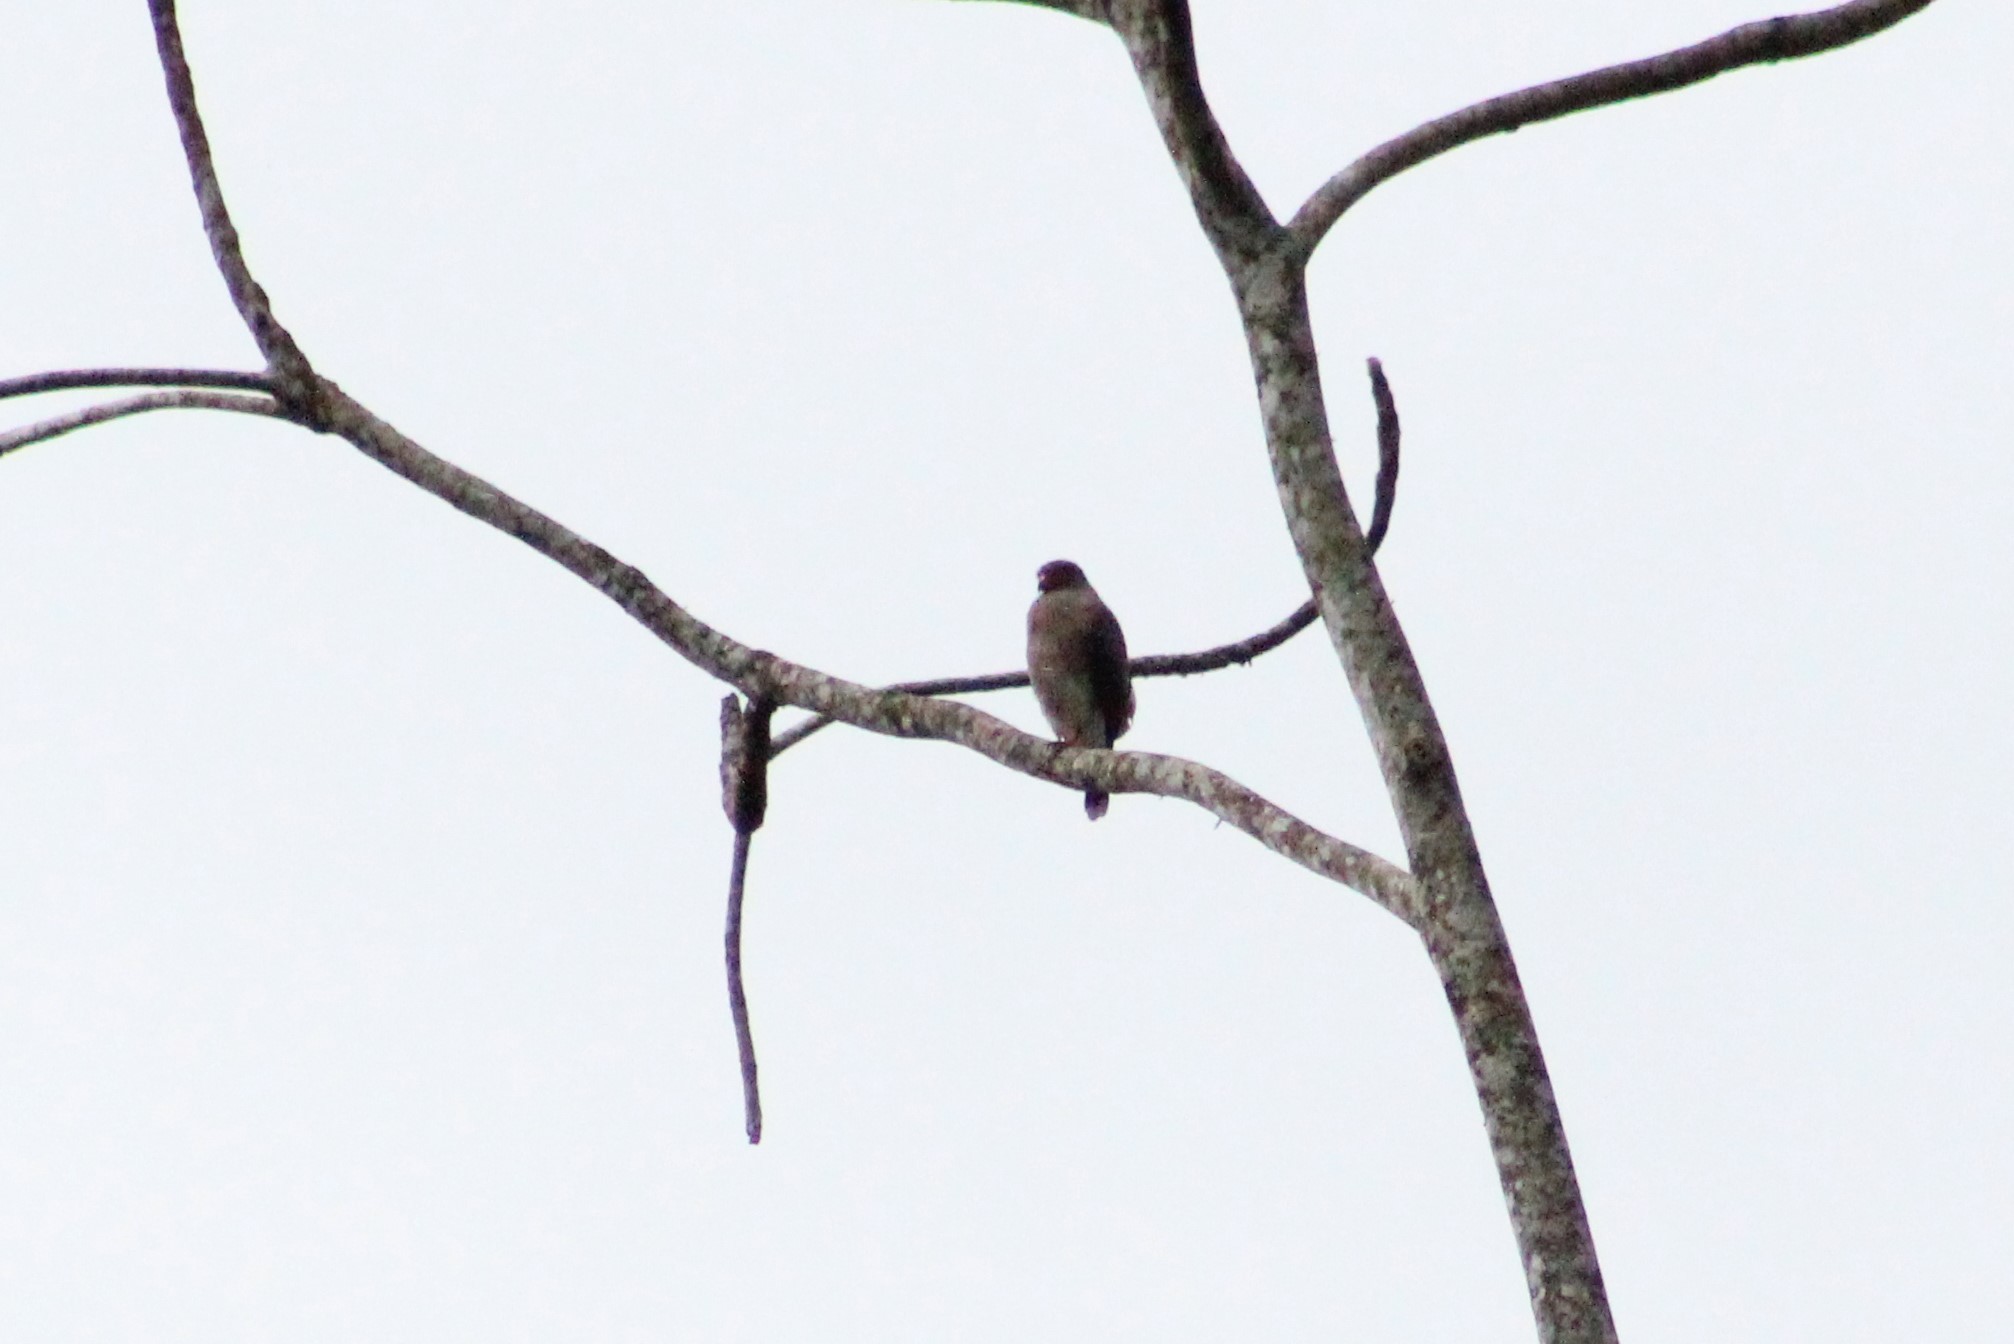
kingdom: Animalia
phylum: Chordata
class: Aves
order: Accipitriformes
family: Accipitridae
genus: Rupornis
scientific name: Rupornis magnirostris
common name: Roadside hawk
